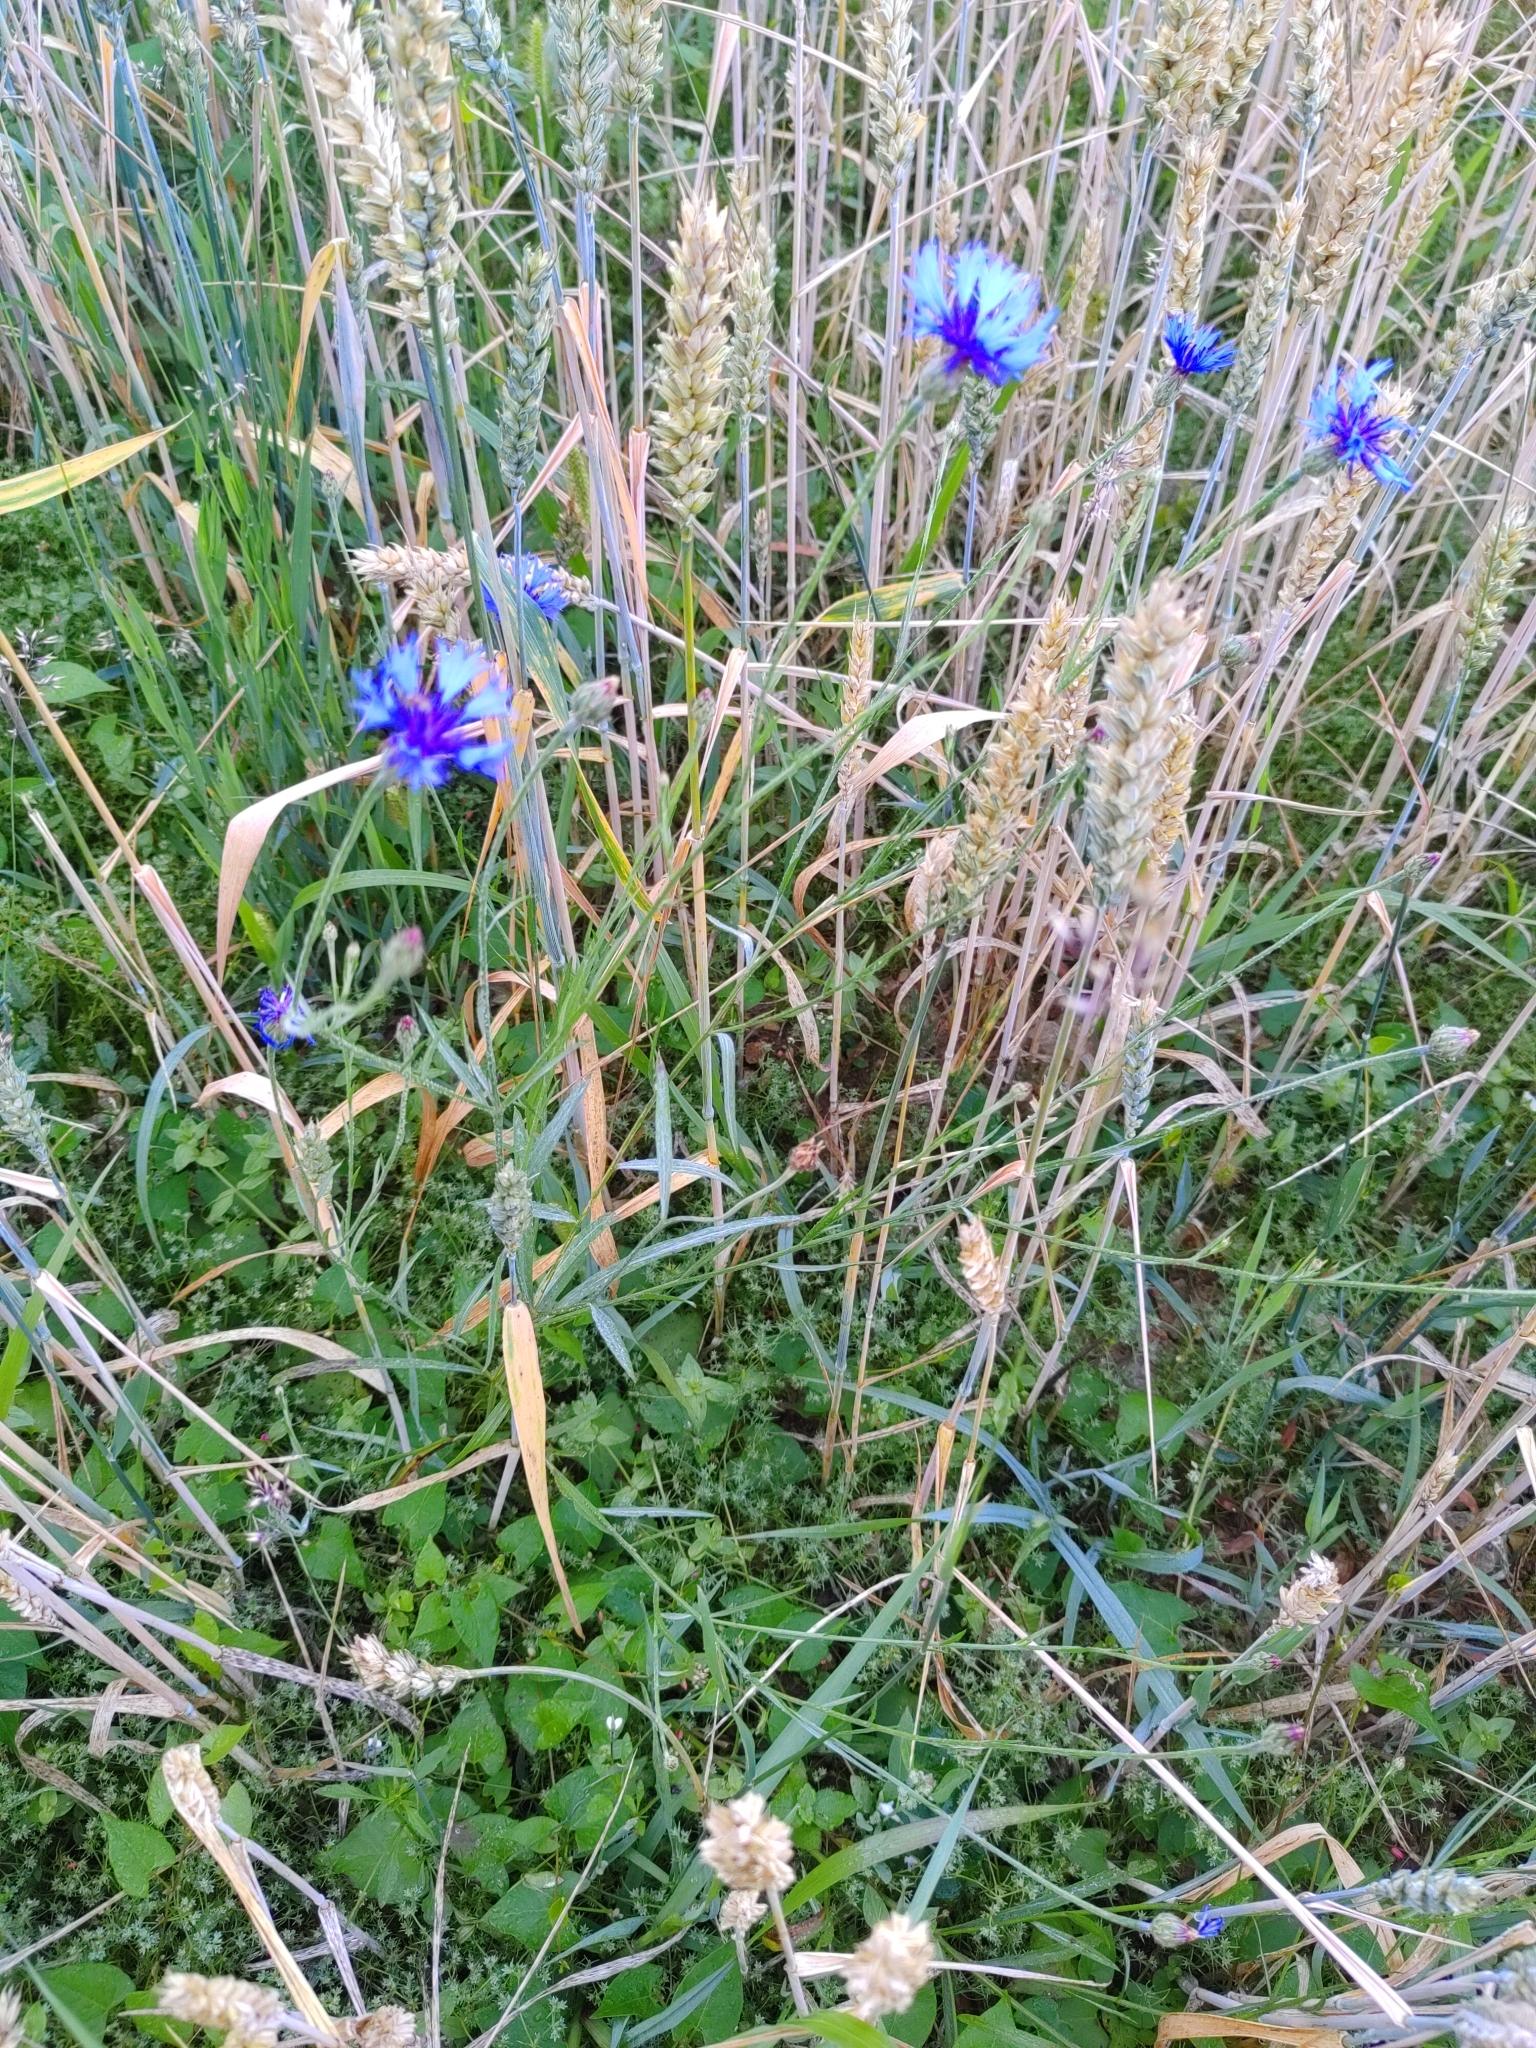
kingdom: Plantae
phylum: Tracheophyta
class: Magnoliopsida
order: Asterales
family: Asteraceae
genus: Centaurea
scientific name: Centaurea cyanus
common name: Cornflower
